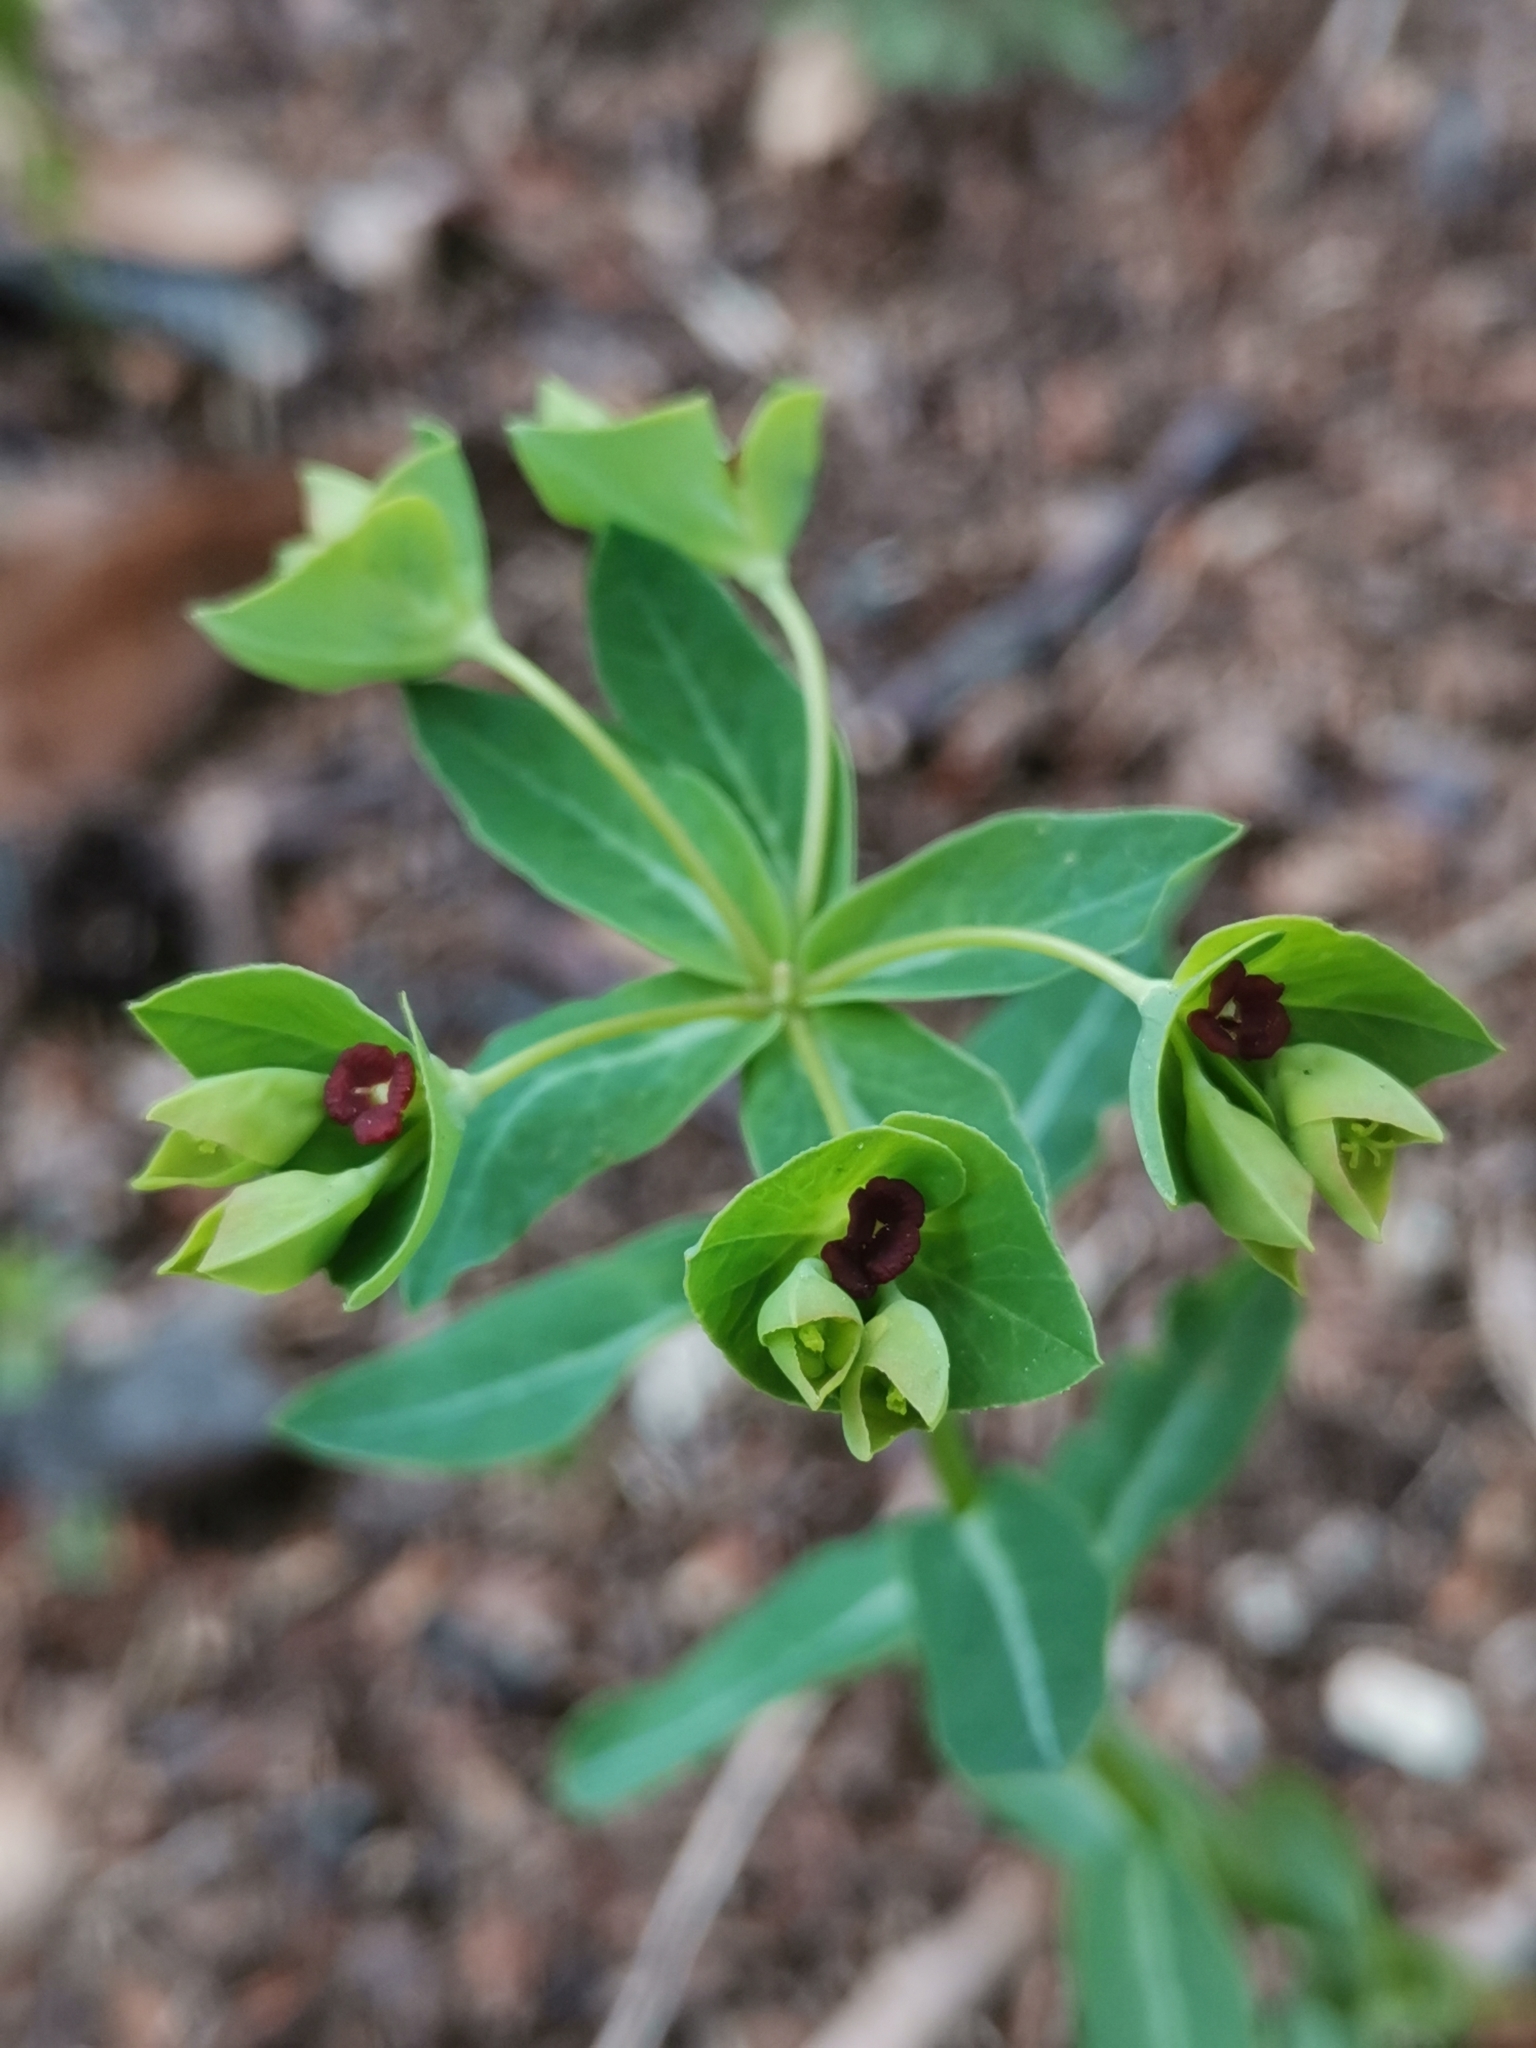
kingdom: Plantae
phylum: Tracheophyta
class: Magnoliopsida
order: Malpighiales
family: Euphorbiaceae
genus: Euphorbia
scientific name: Euphorbia dulcis
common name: Sweet spurge
